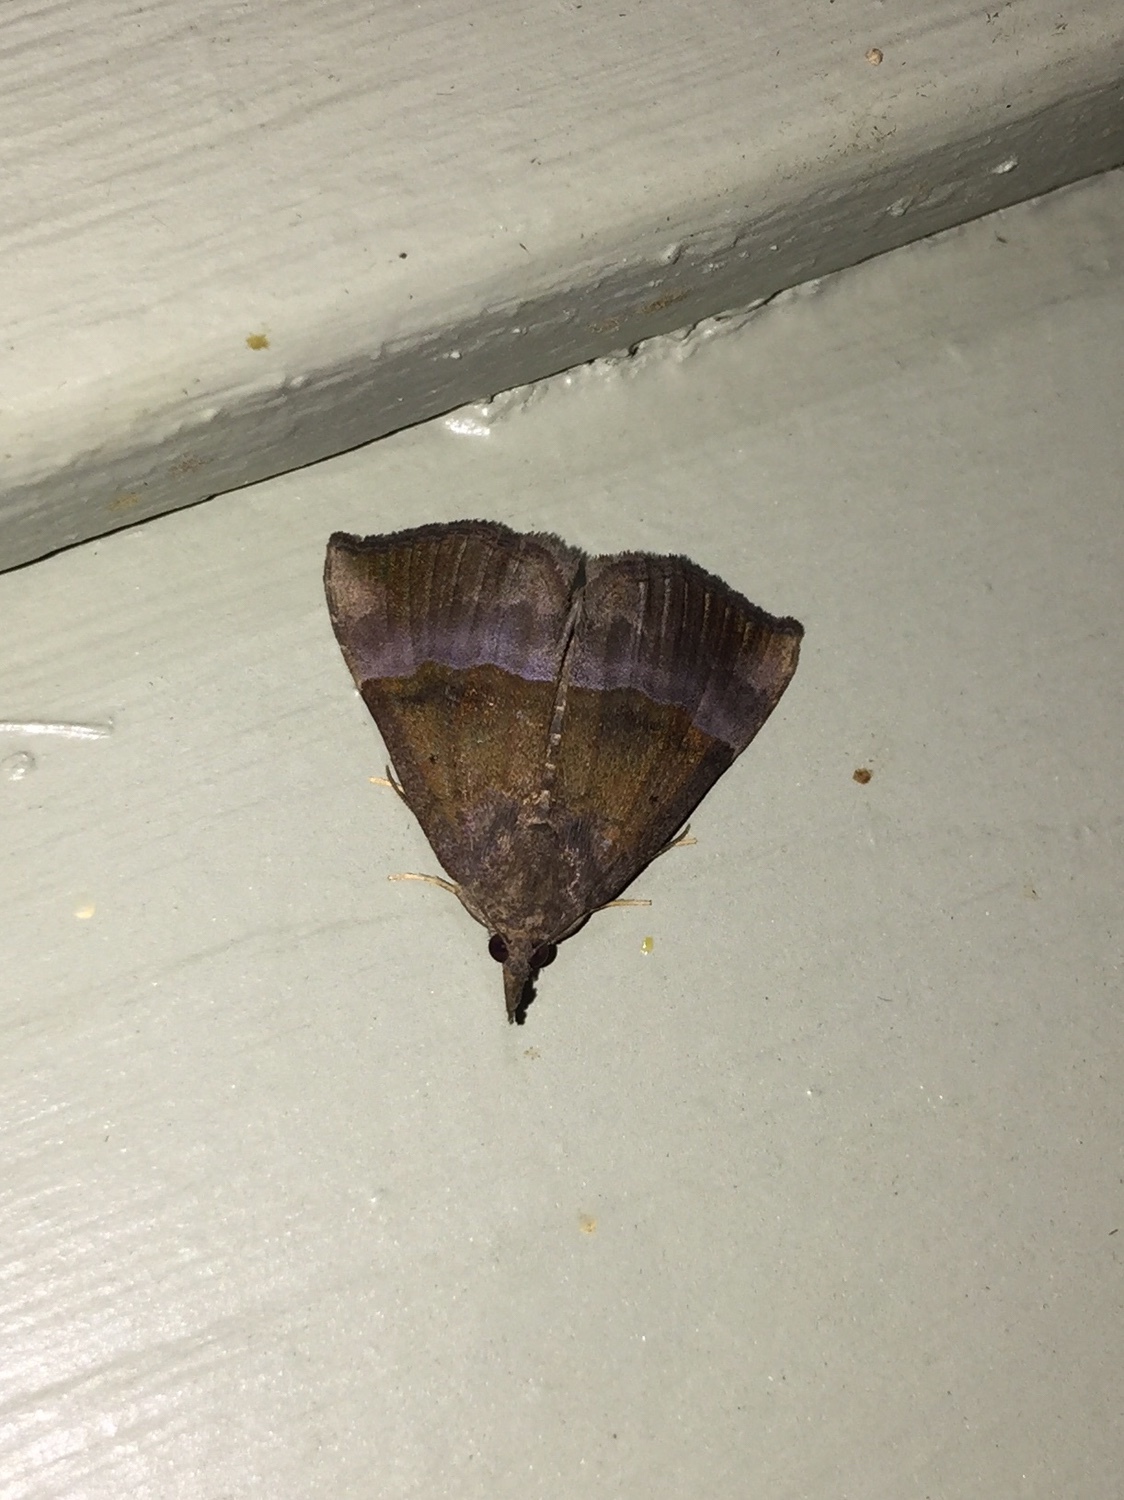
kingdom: Animalia
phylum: Arthropoda
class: Insecta
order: Lepidoptera
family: Erebidae
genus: Hypena
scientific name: Hypena madefactalis
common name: Gray-edged snout
